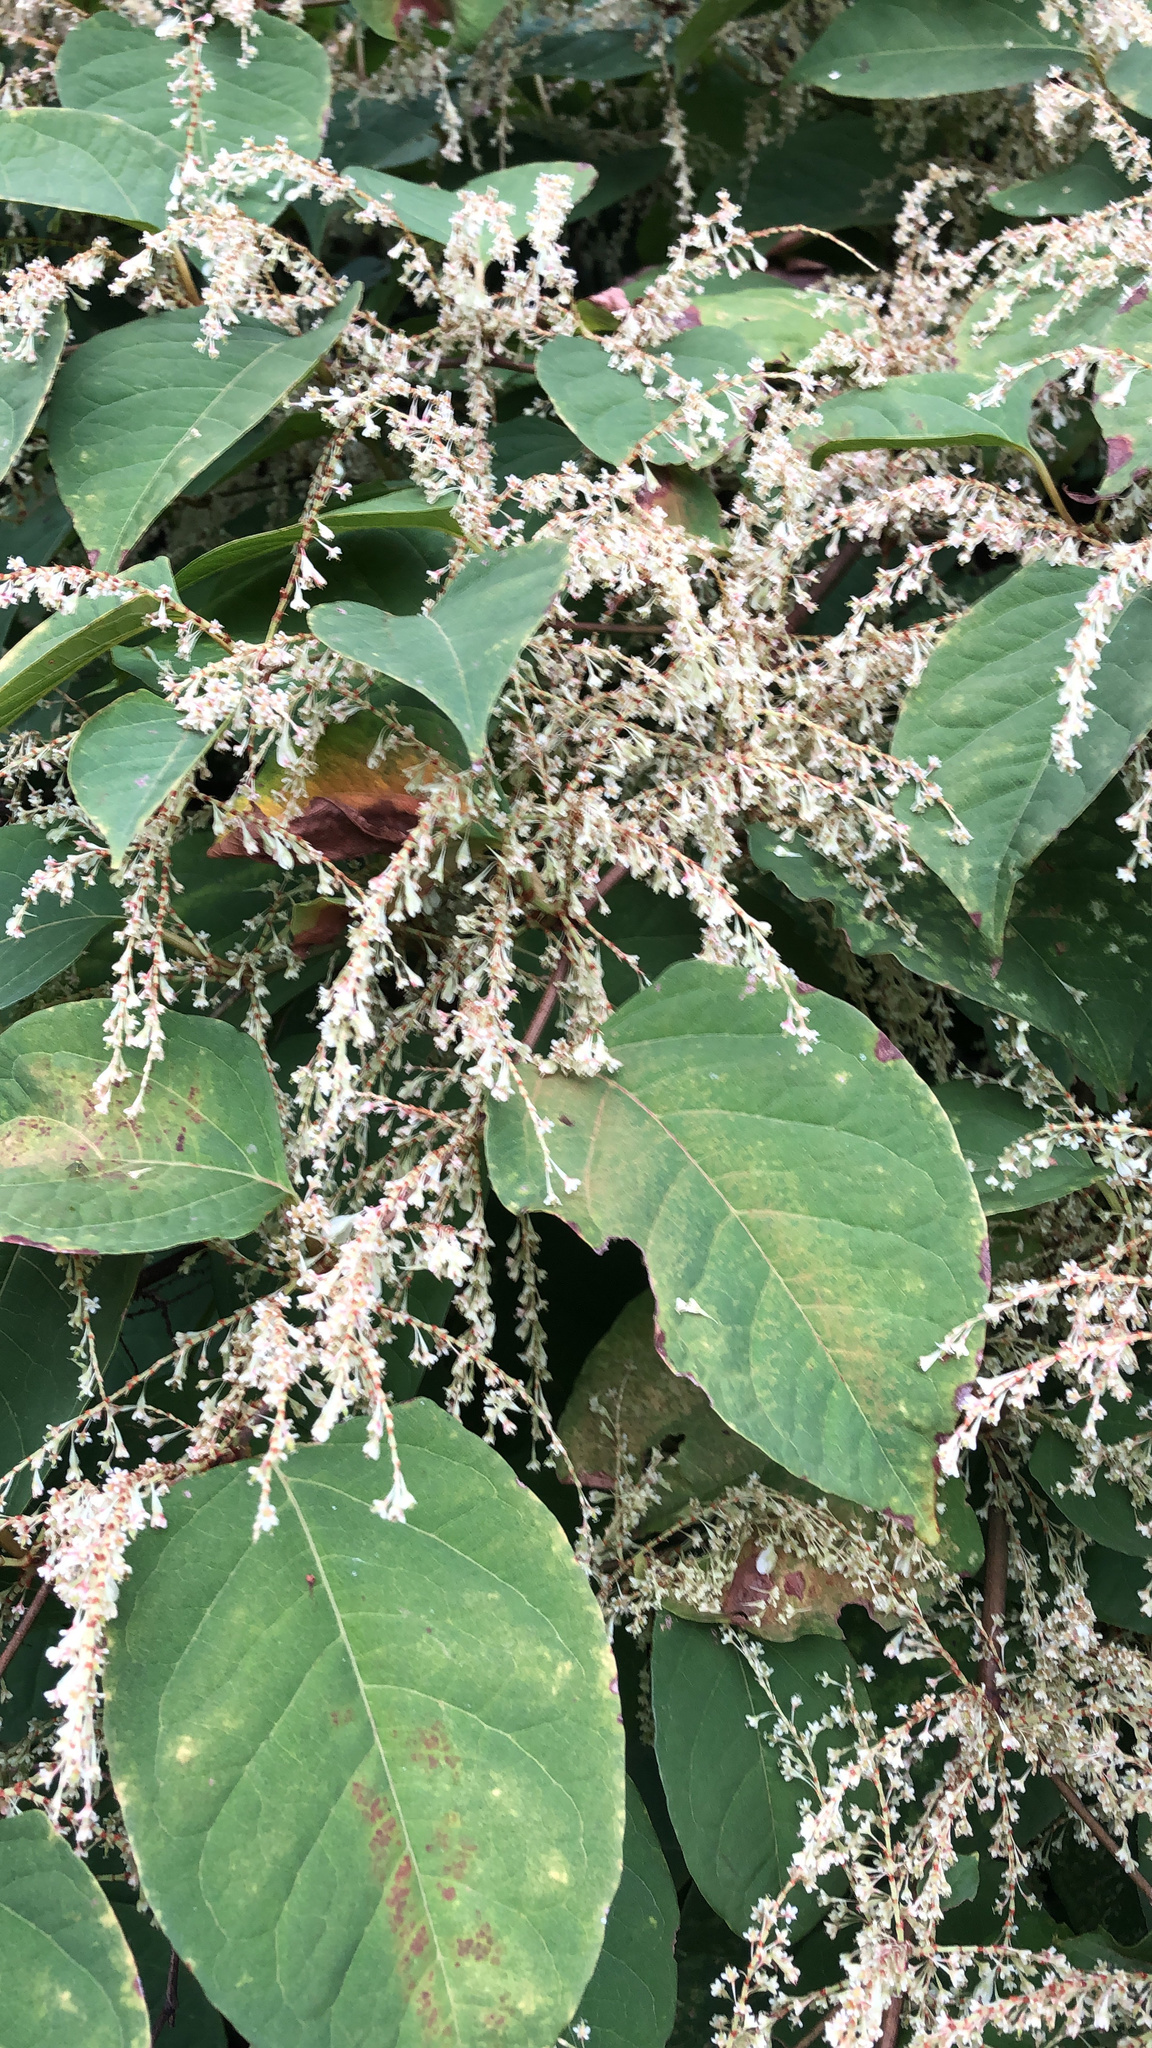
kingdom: Plantae
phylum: Tracheophyta
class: Magnoliopsida
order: Caryophyllales
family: Polygonaceae
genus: Reynoutria
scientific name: Reynoutria japonica
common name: Japanese knotweed
